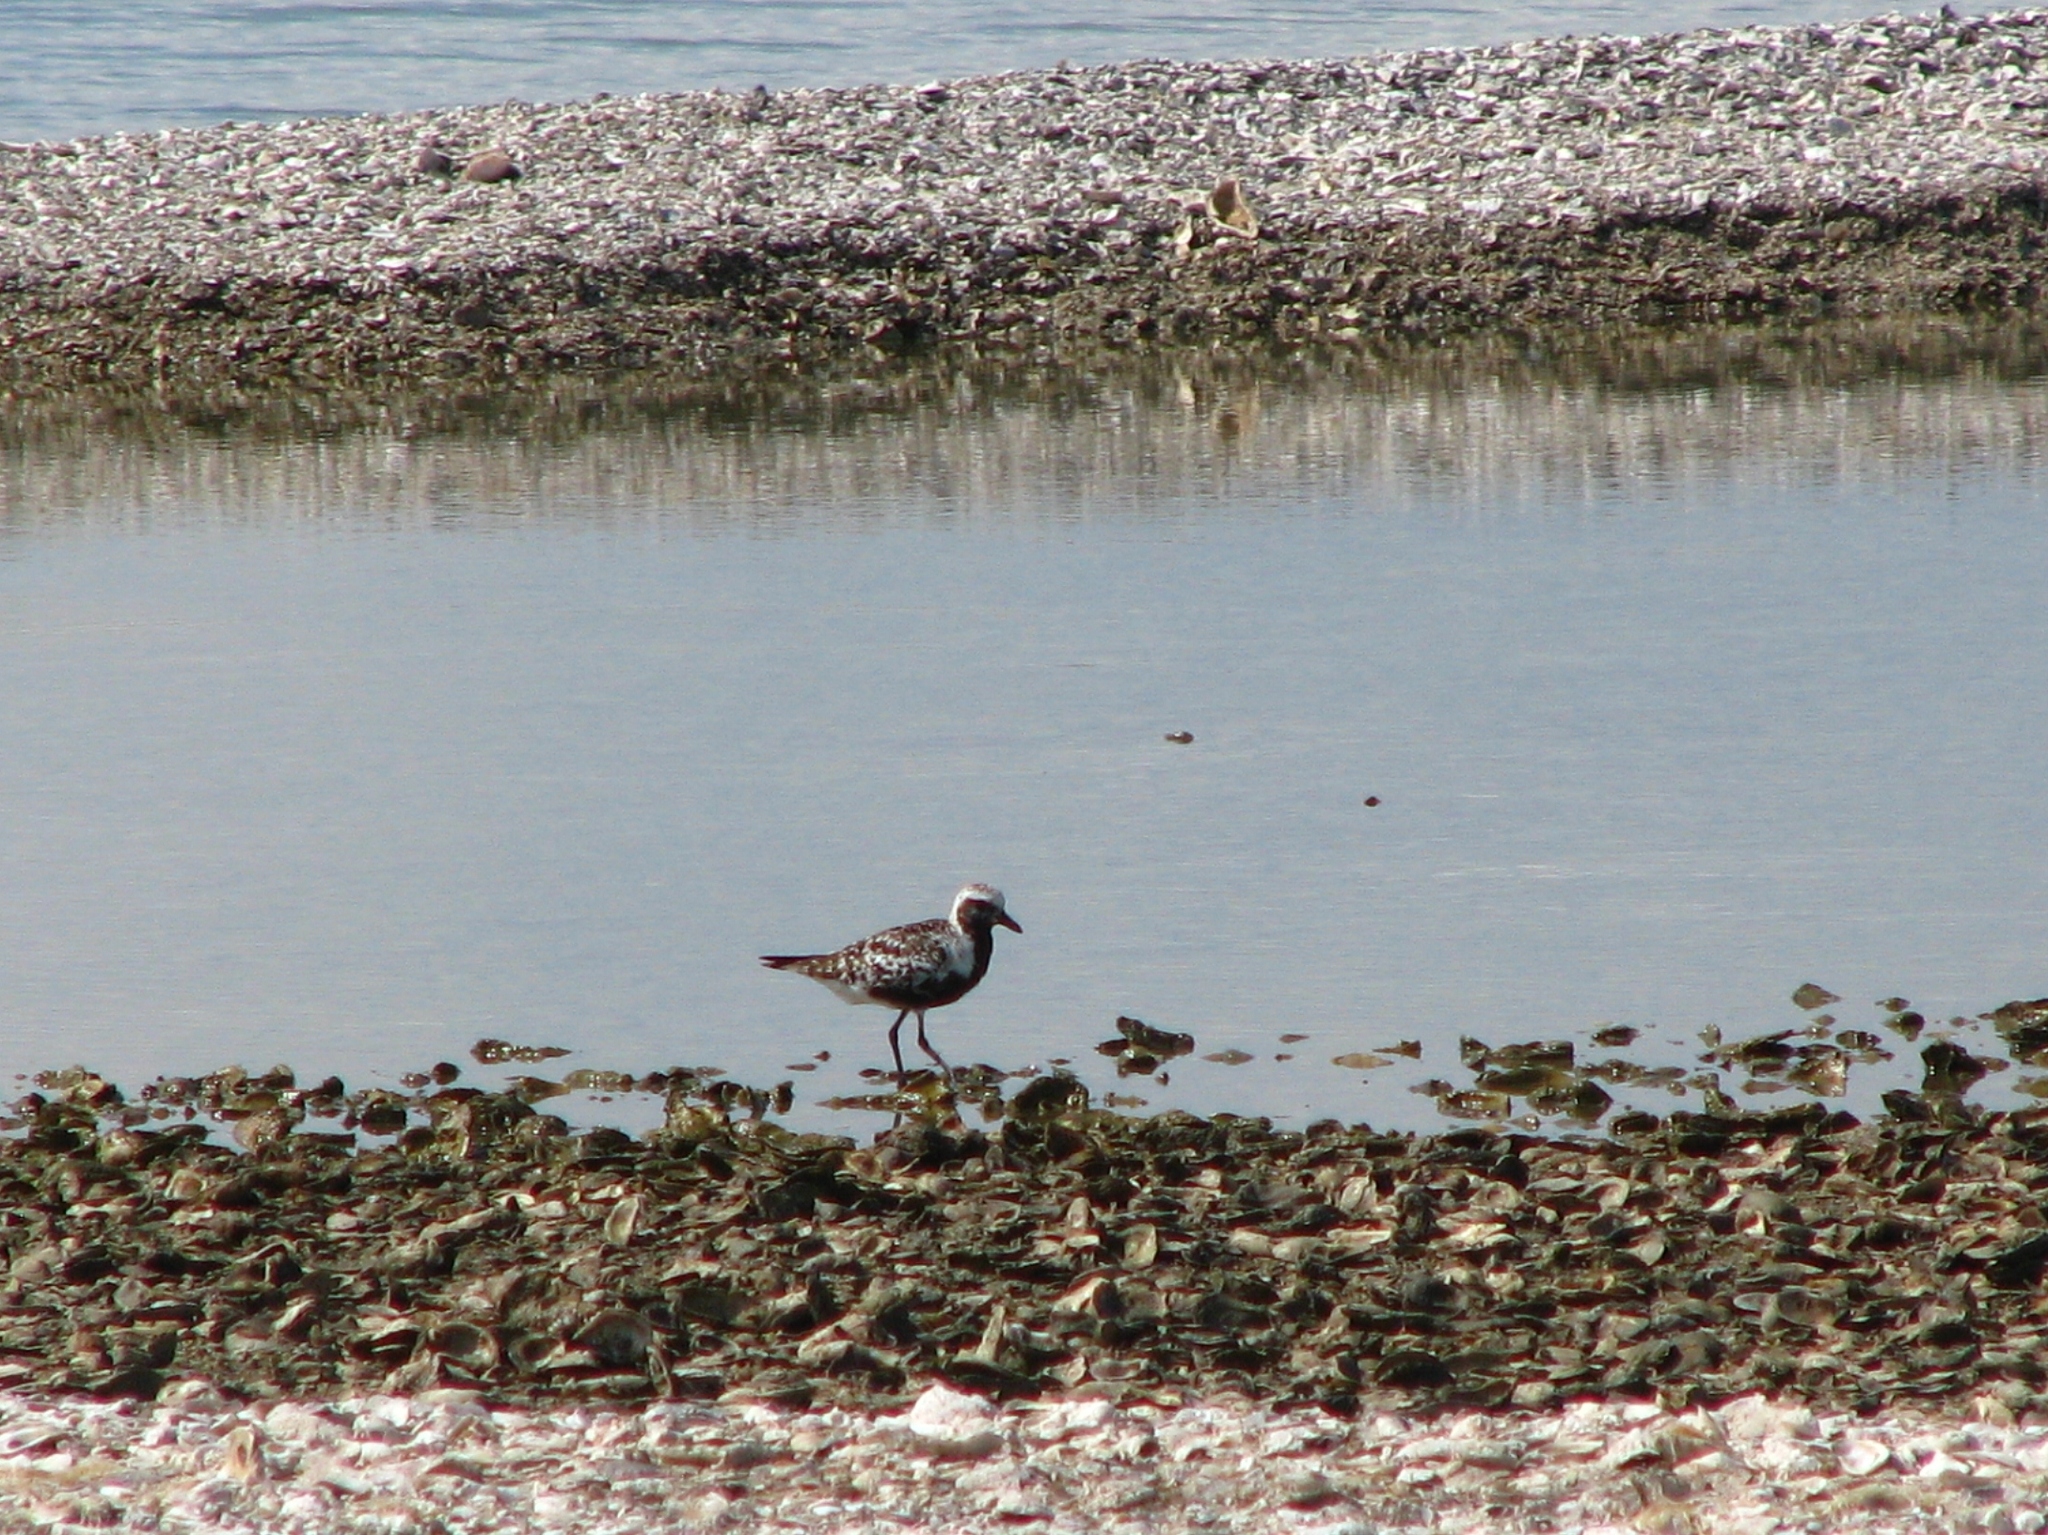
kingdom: Animalia
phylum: Chordata
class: Aves
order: Charadriiformes
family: Charadriidae
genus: Pluvialis
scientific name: Pluvialis squatarola
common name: Grey plover
